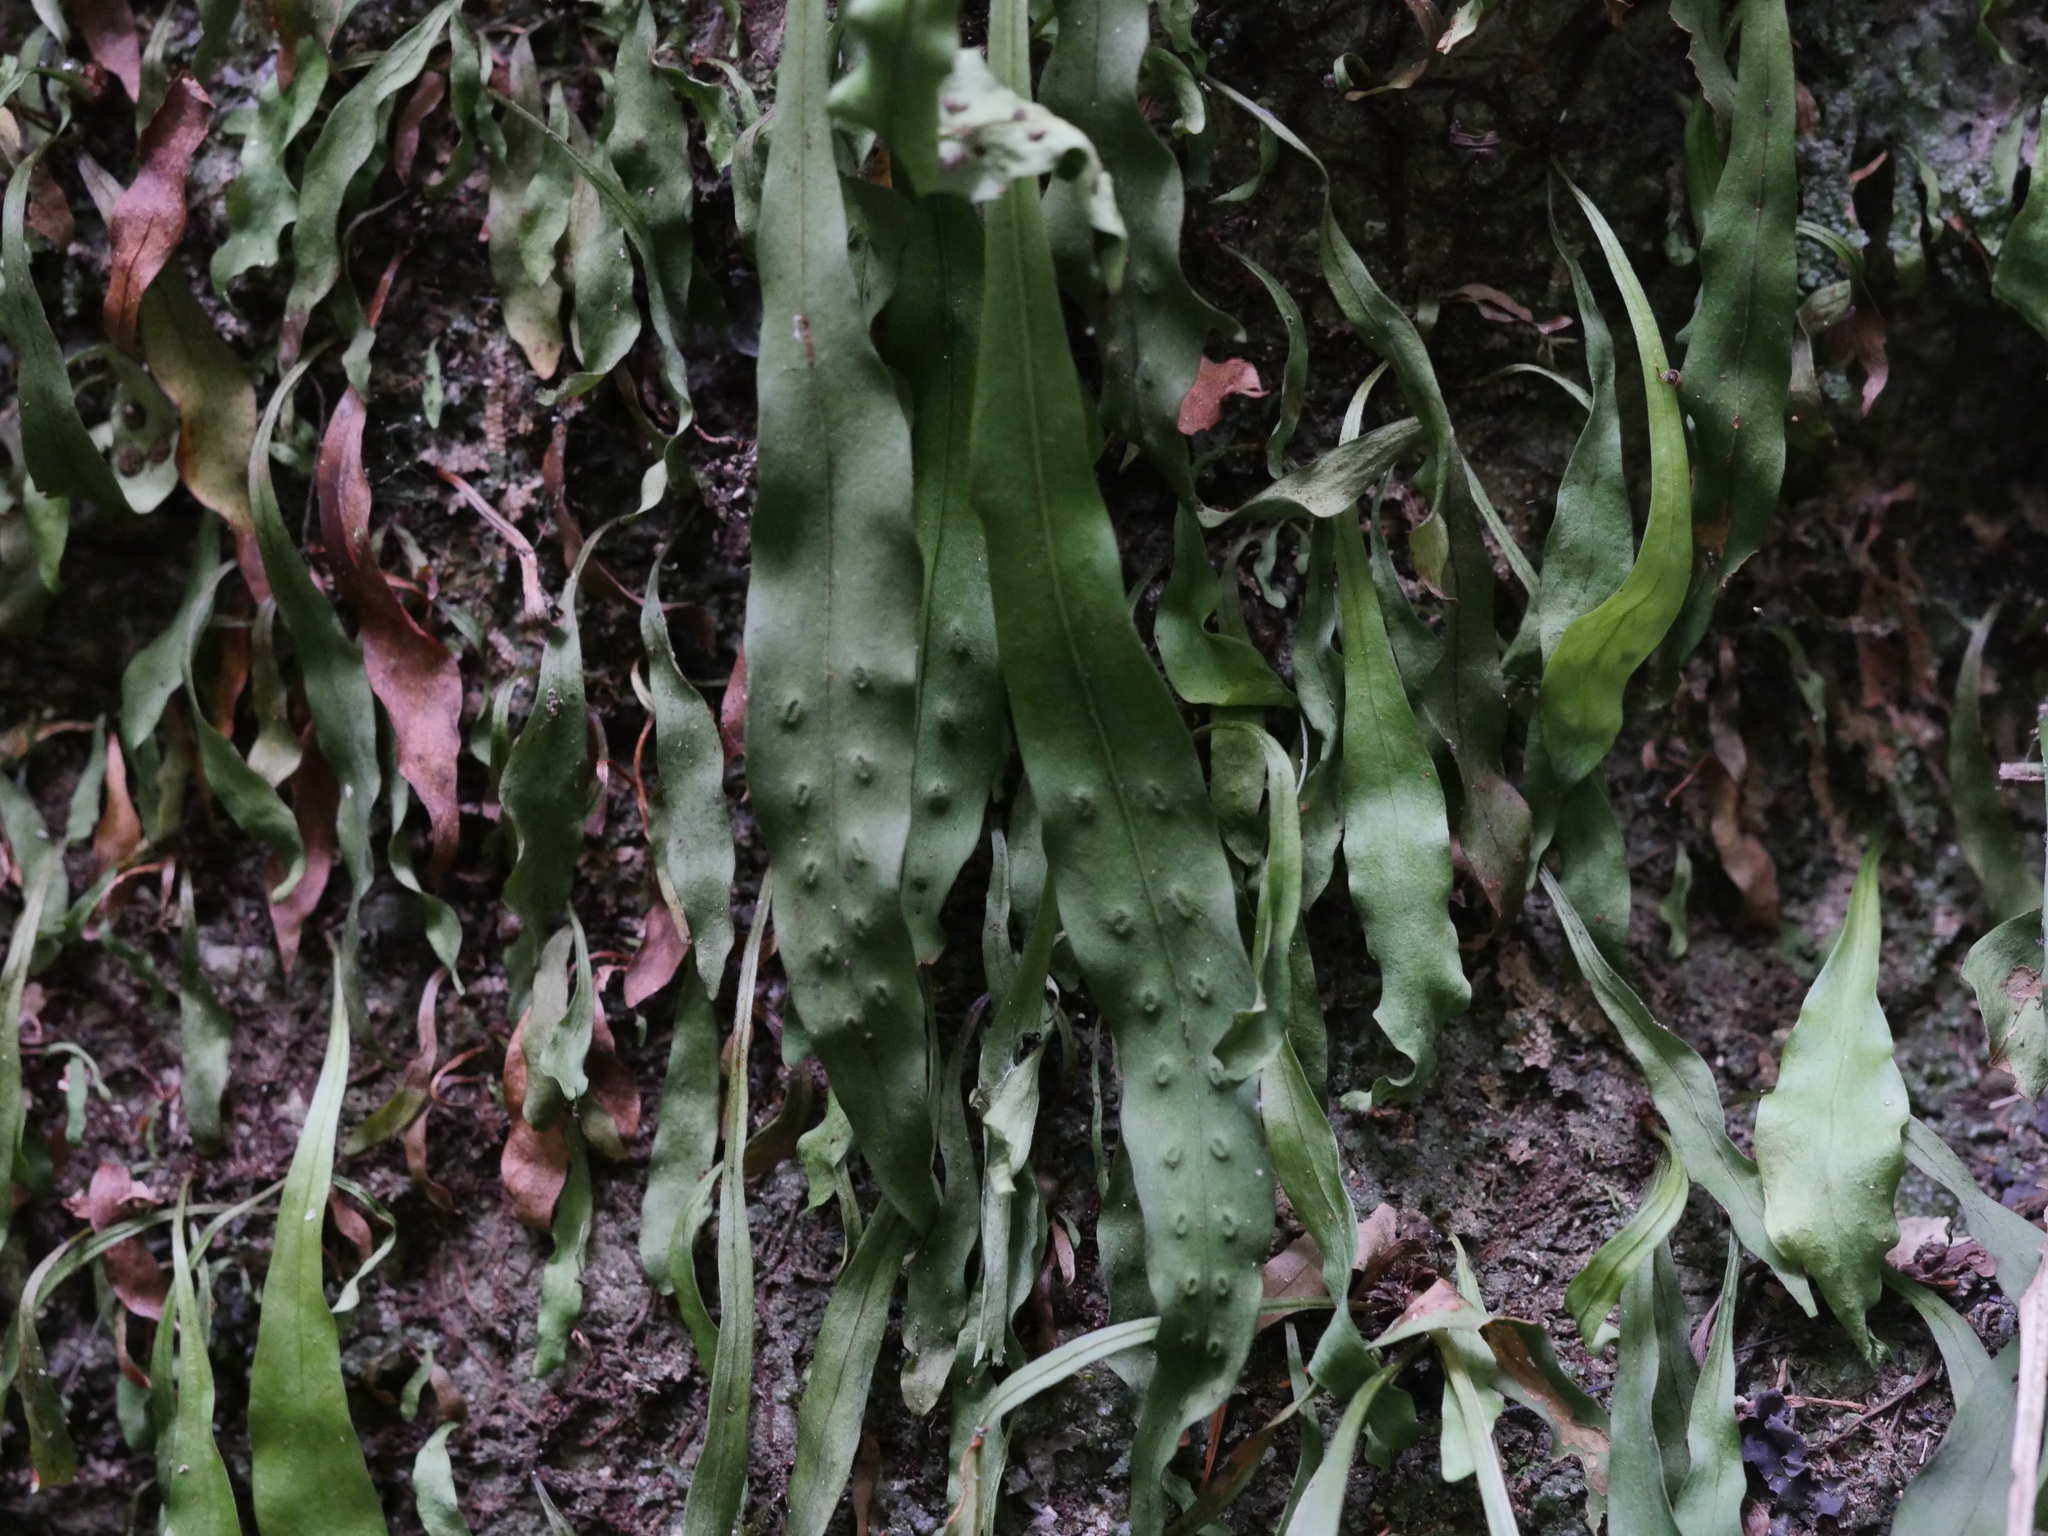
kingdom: Plantae
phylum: Tracheophyta
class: Polypodiopsida
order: Polypodiales
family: Polypodiaceae
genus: Loxogramme
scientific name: Loxogramme dictyopteris
